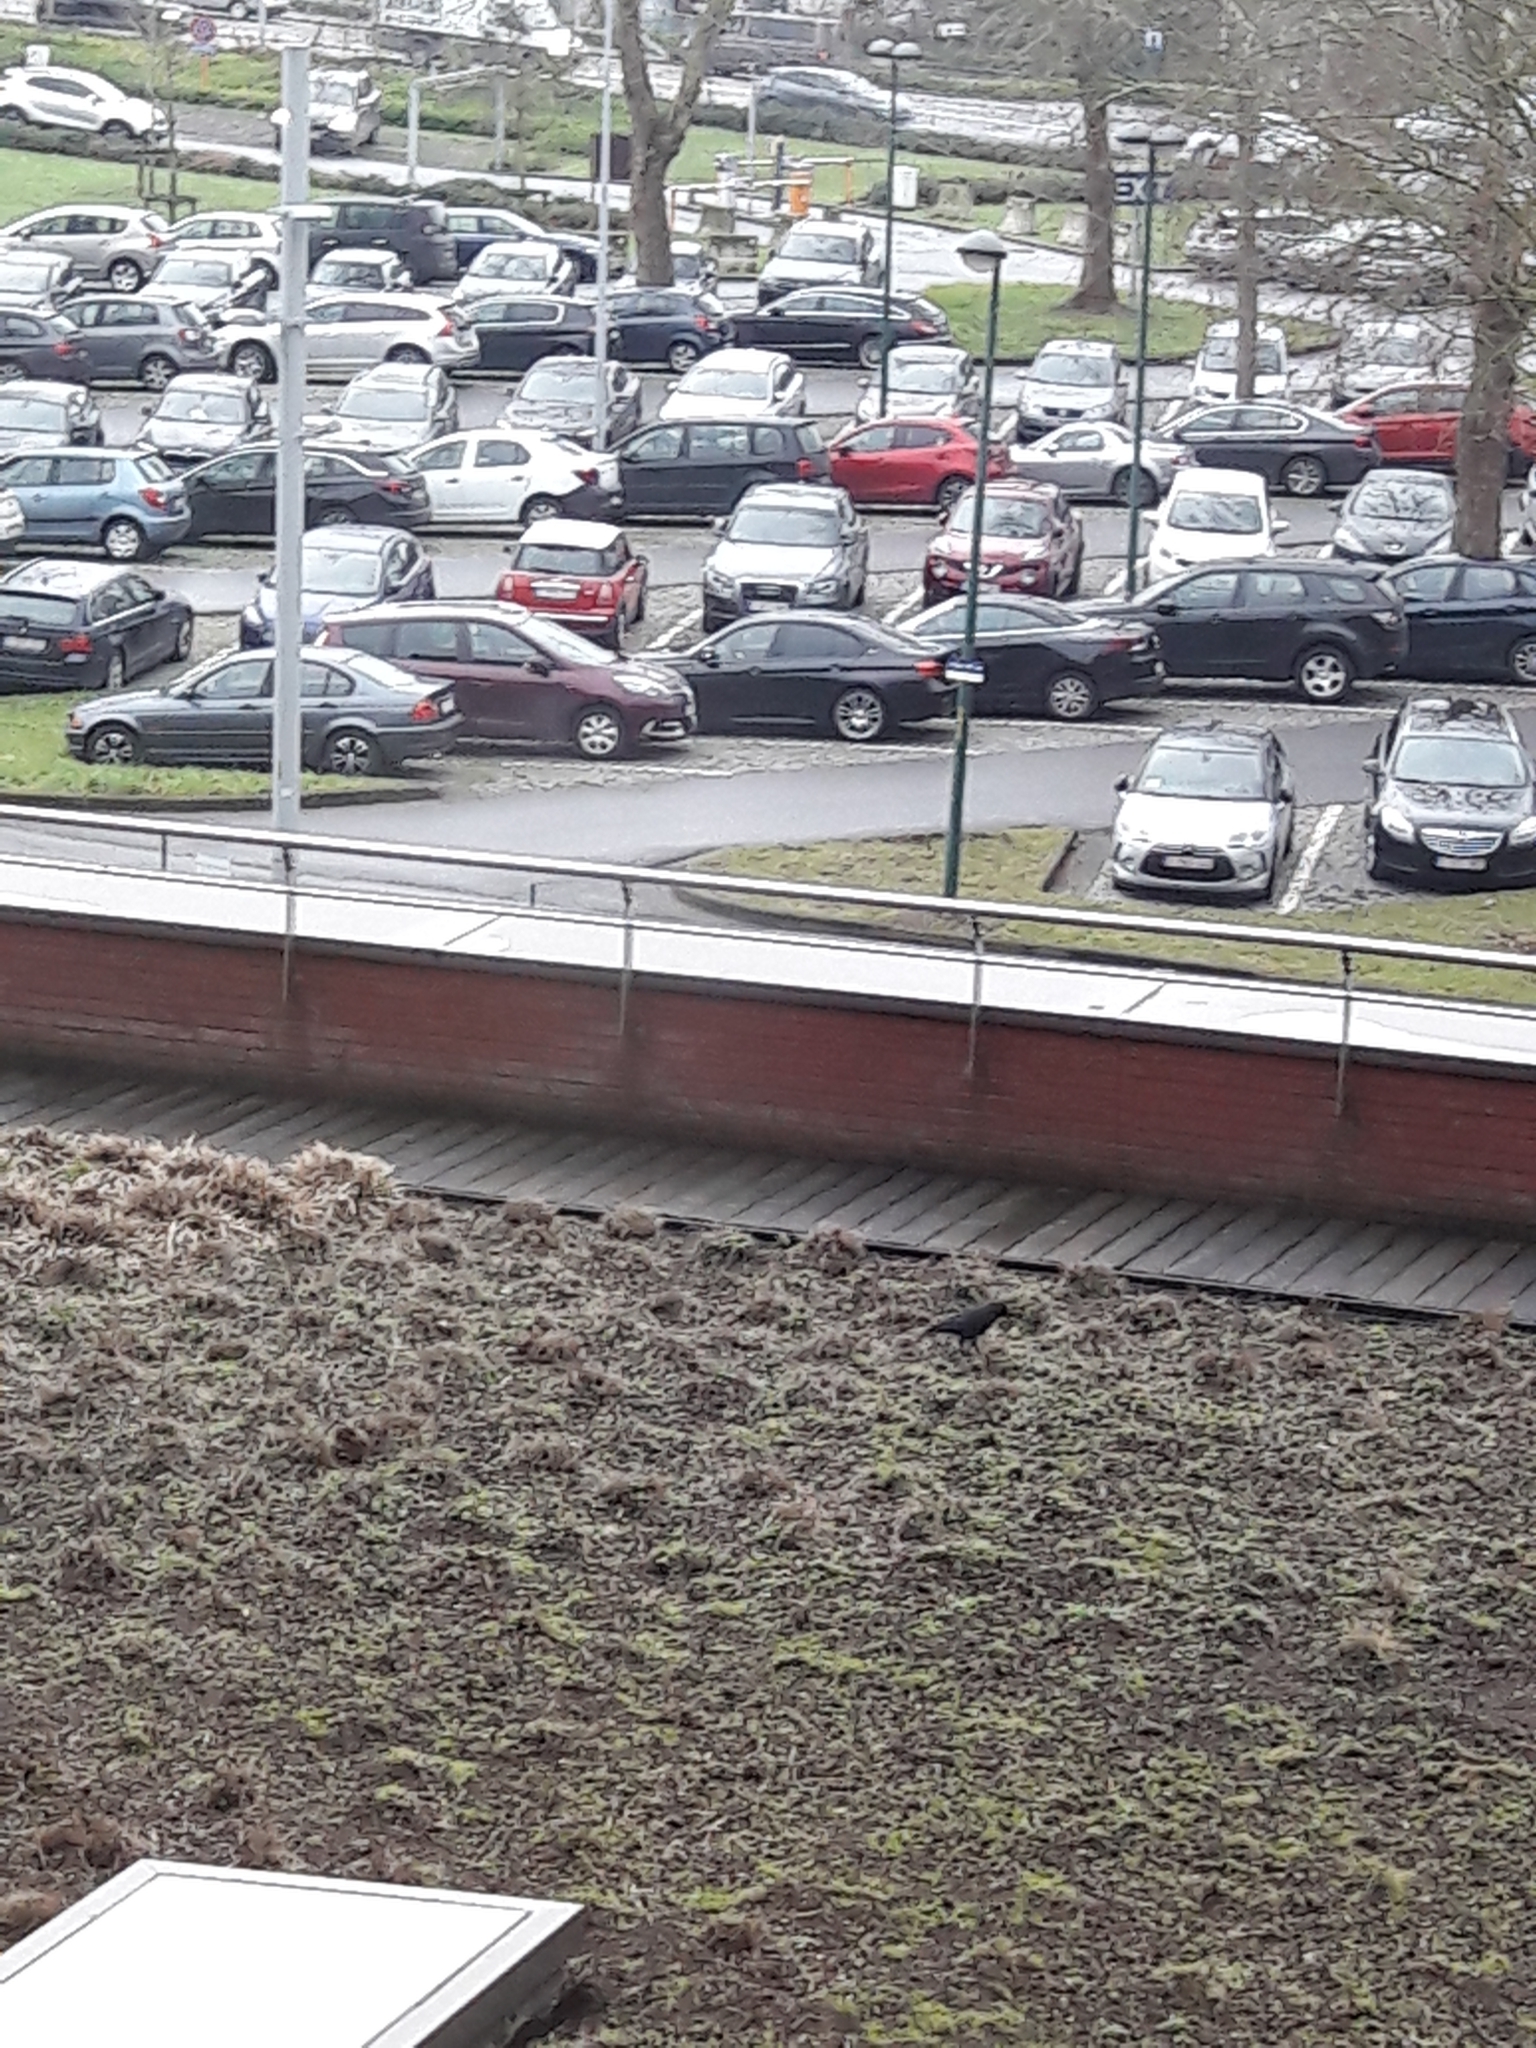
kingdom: Animalia
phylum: Chordata
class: Aves
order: Passeriformes
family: Corvidae
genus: Coloeus
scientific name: Coloeus monedula
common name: Western jackdaw
